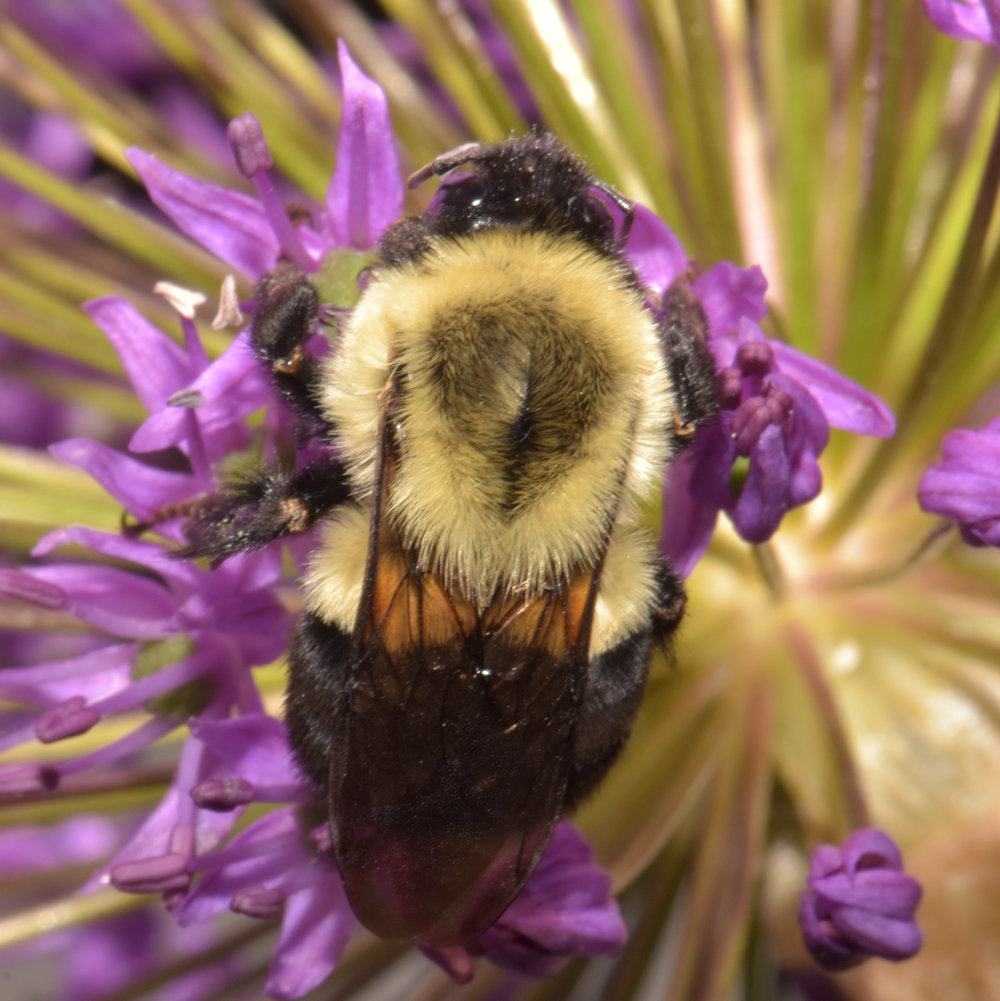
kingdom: Animalia
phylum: Arthropoda
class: Insecta
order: Hymenoptera
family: Apidae
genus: Bombus
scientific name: Bombus impatiens
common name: Common eastern bumble bee
